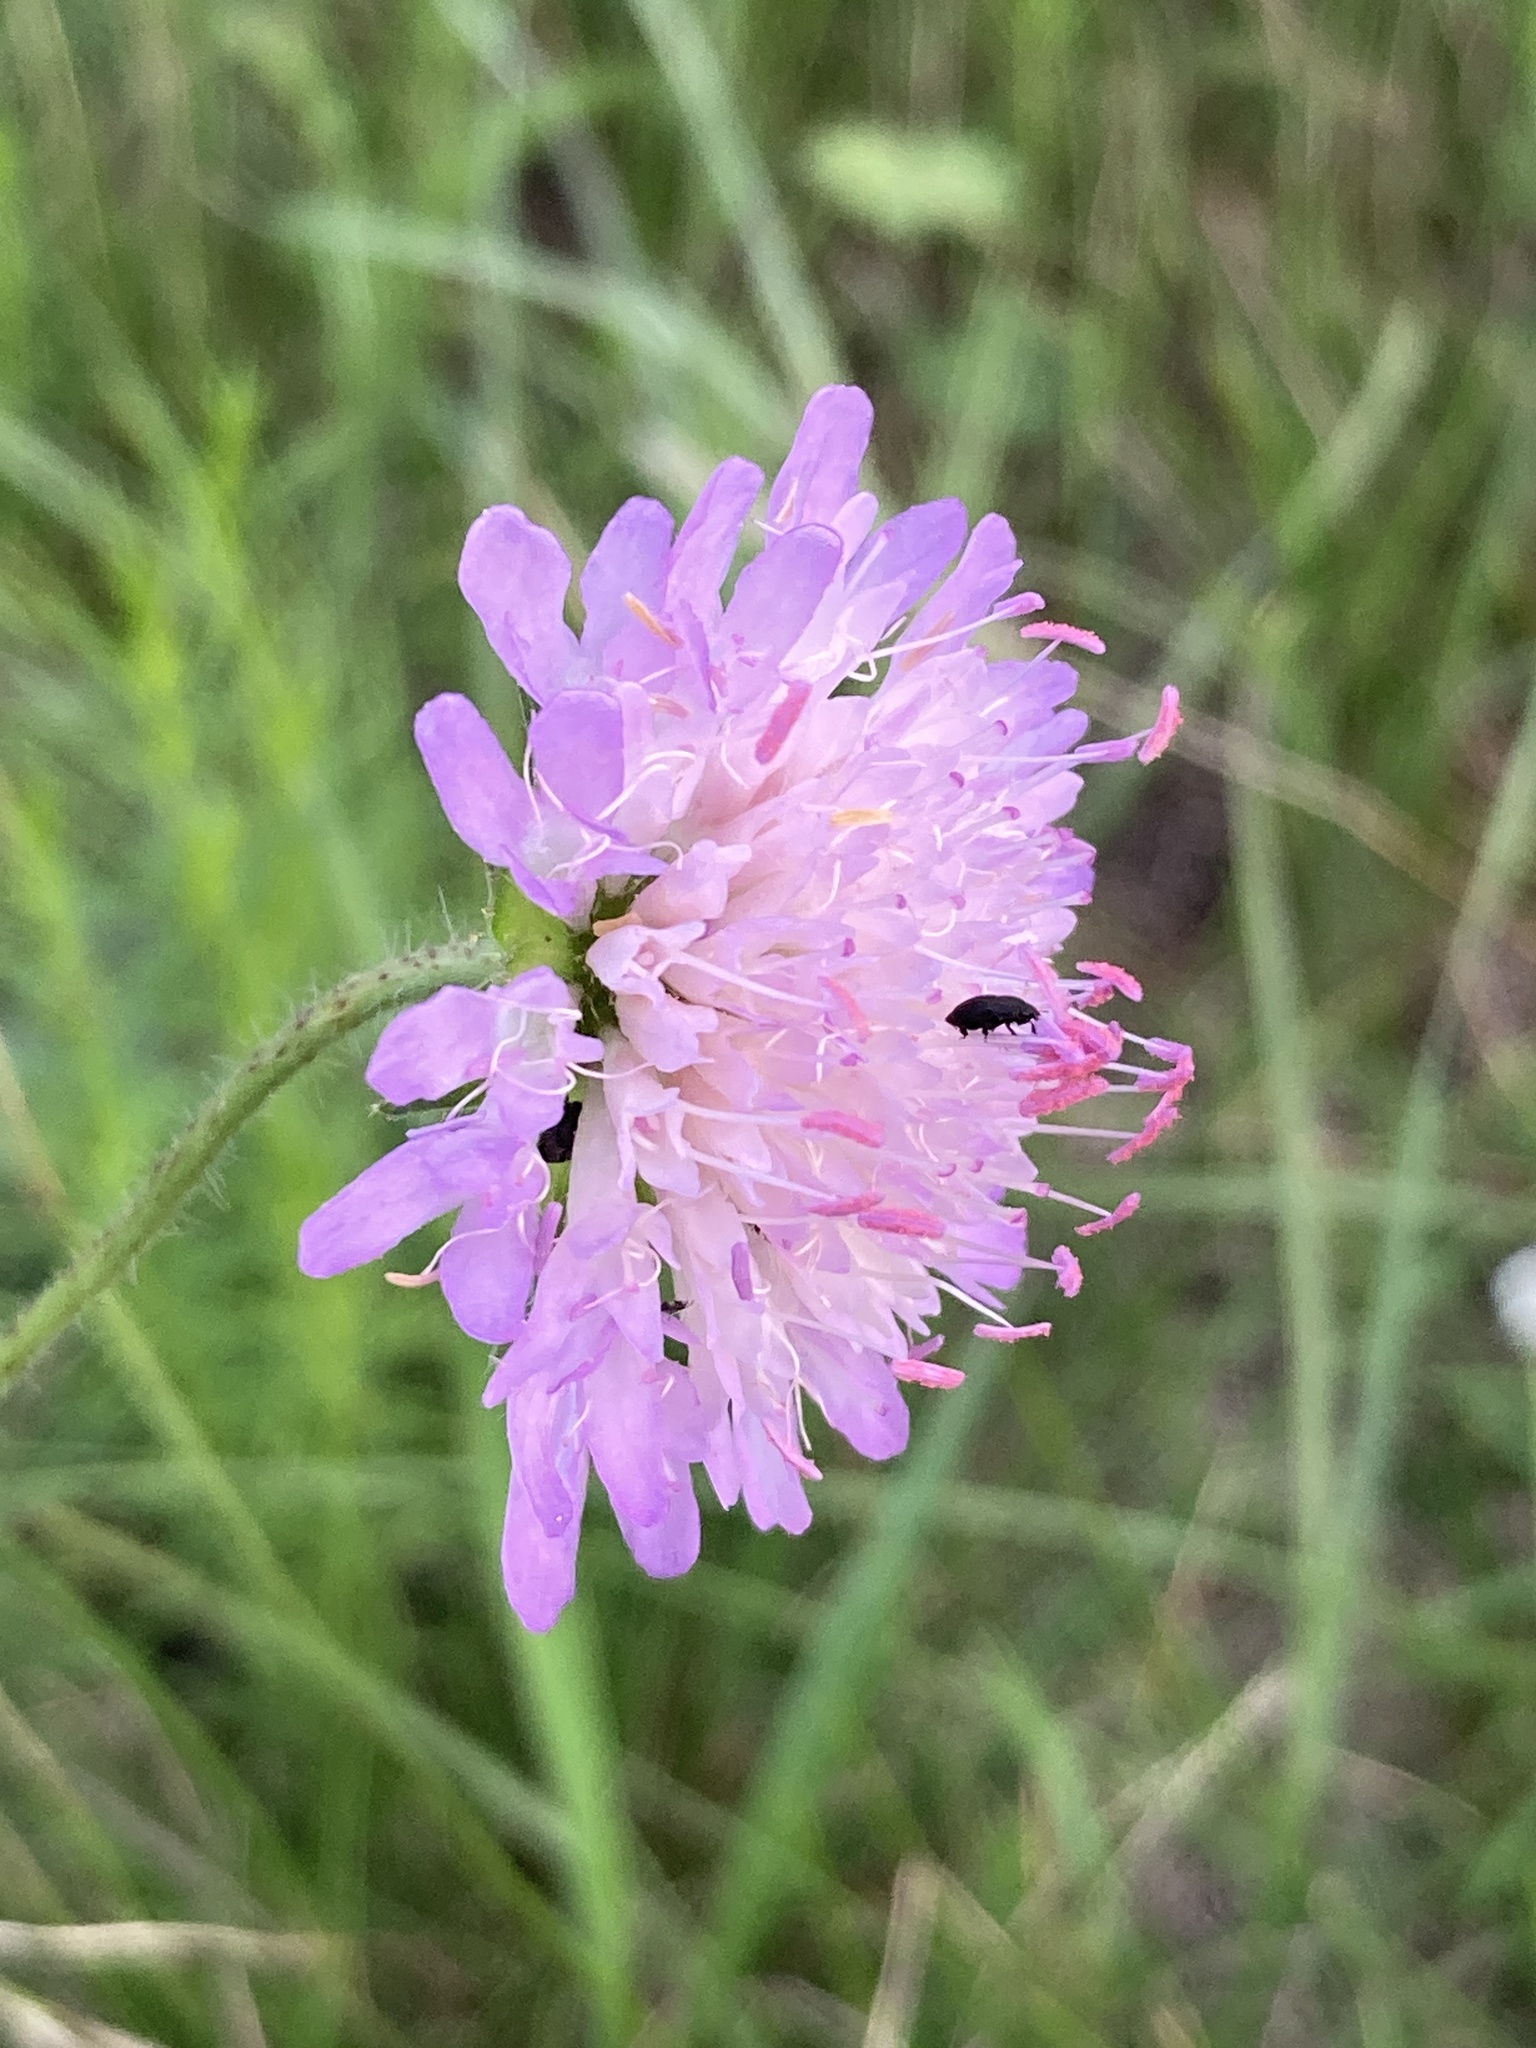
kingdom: Plantae
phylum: Tracheophyta
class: Magnoliopsida
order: Dipsacales
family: Caprifoliaceae
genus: Knautia
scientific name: Knautia arvensis
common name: Field scabiosa
